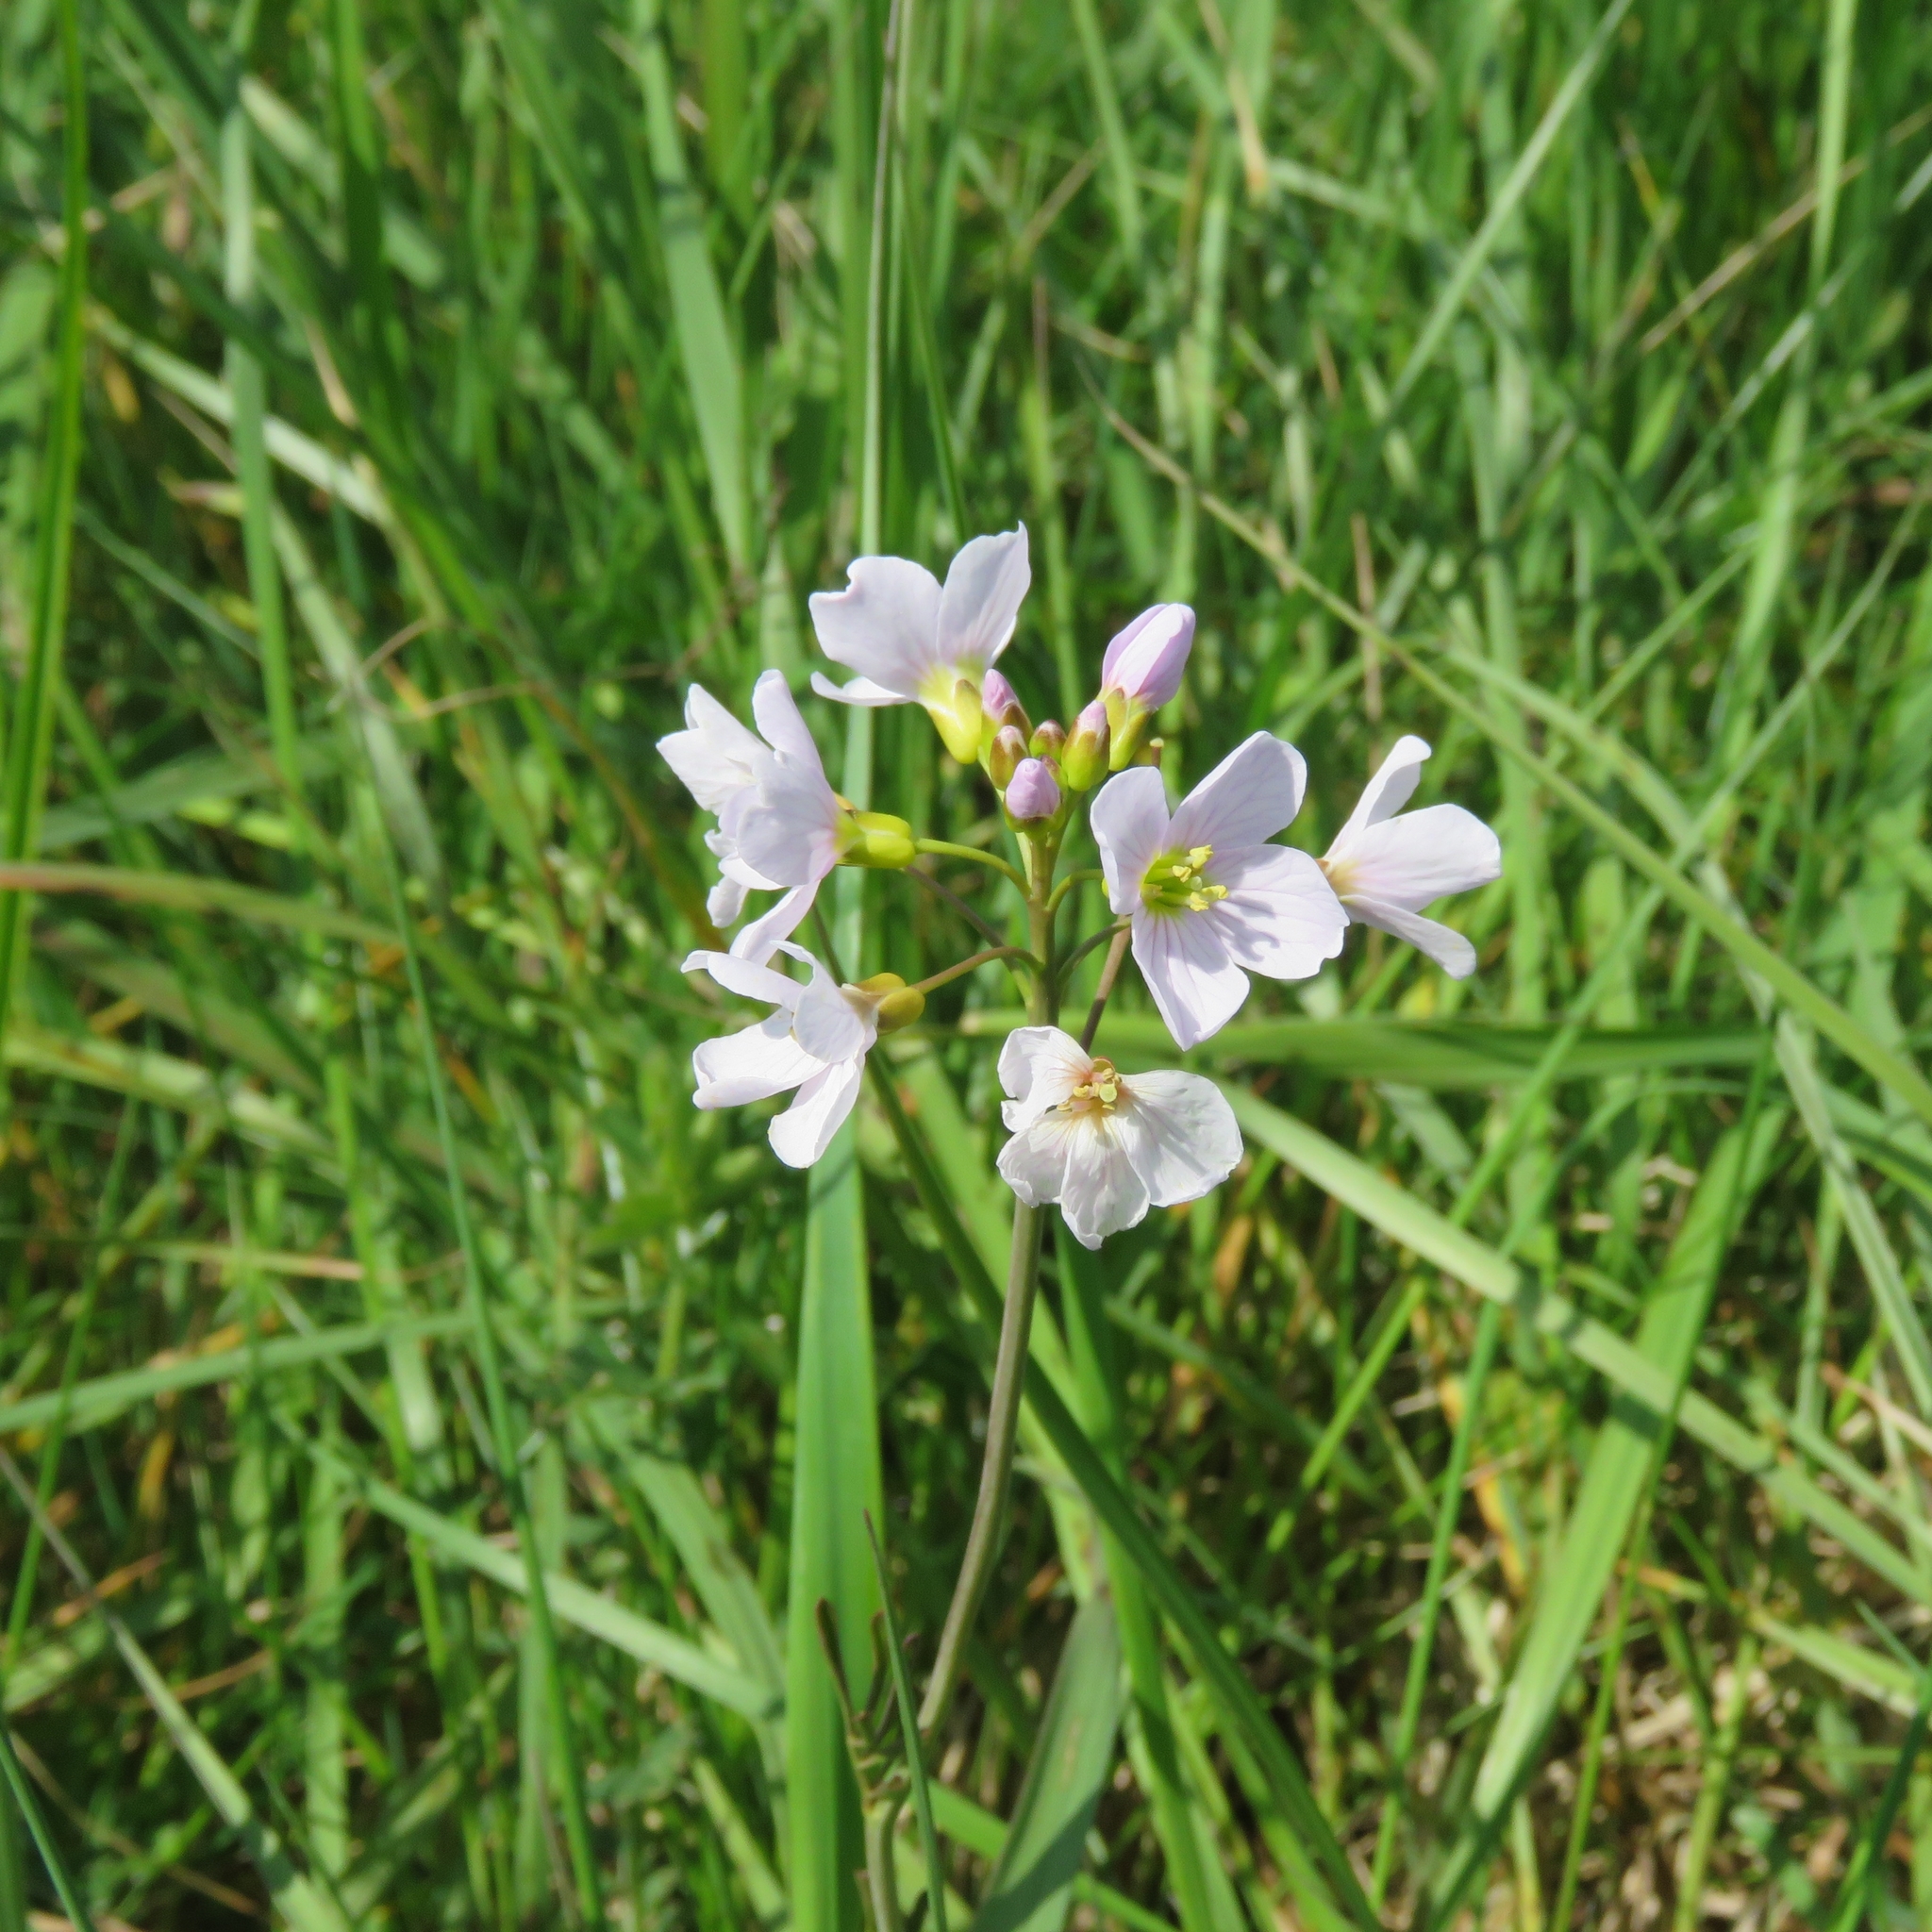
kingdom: Plantae
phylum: Tracheophyta
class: Magnoliopsida
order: Brassicales
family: Brassicaceae
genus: Cardamine
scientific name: Cardamine pratensis
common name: Cuckoo flower
